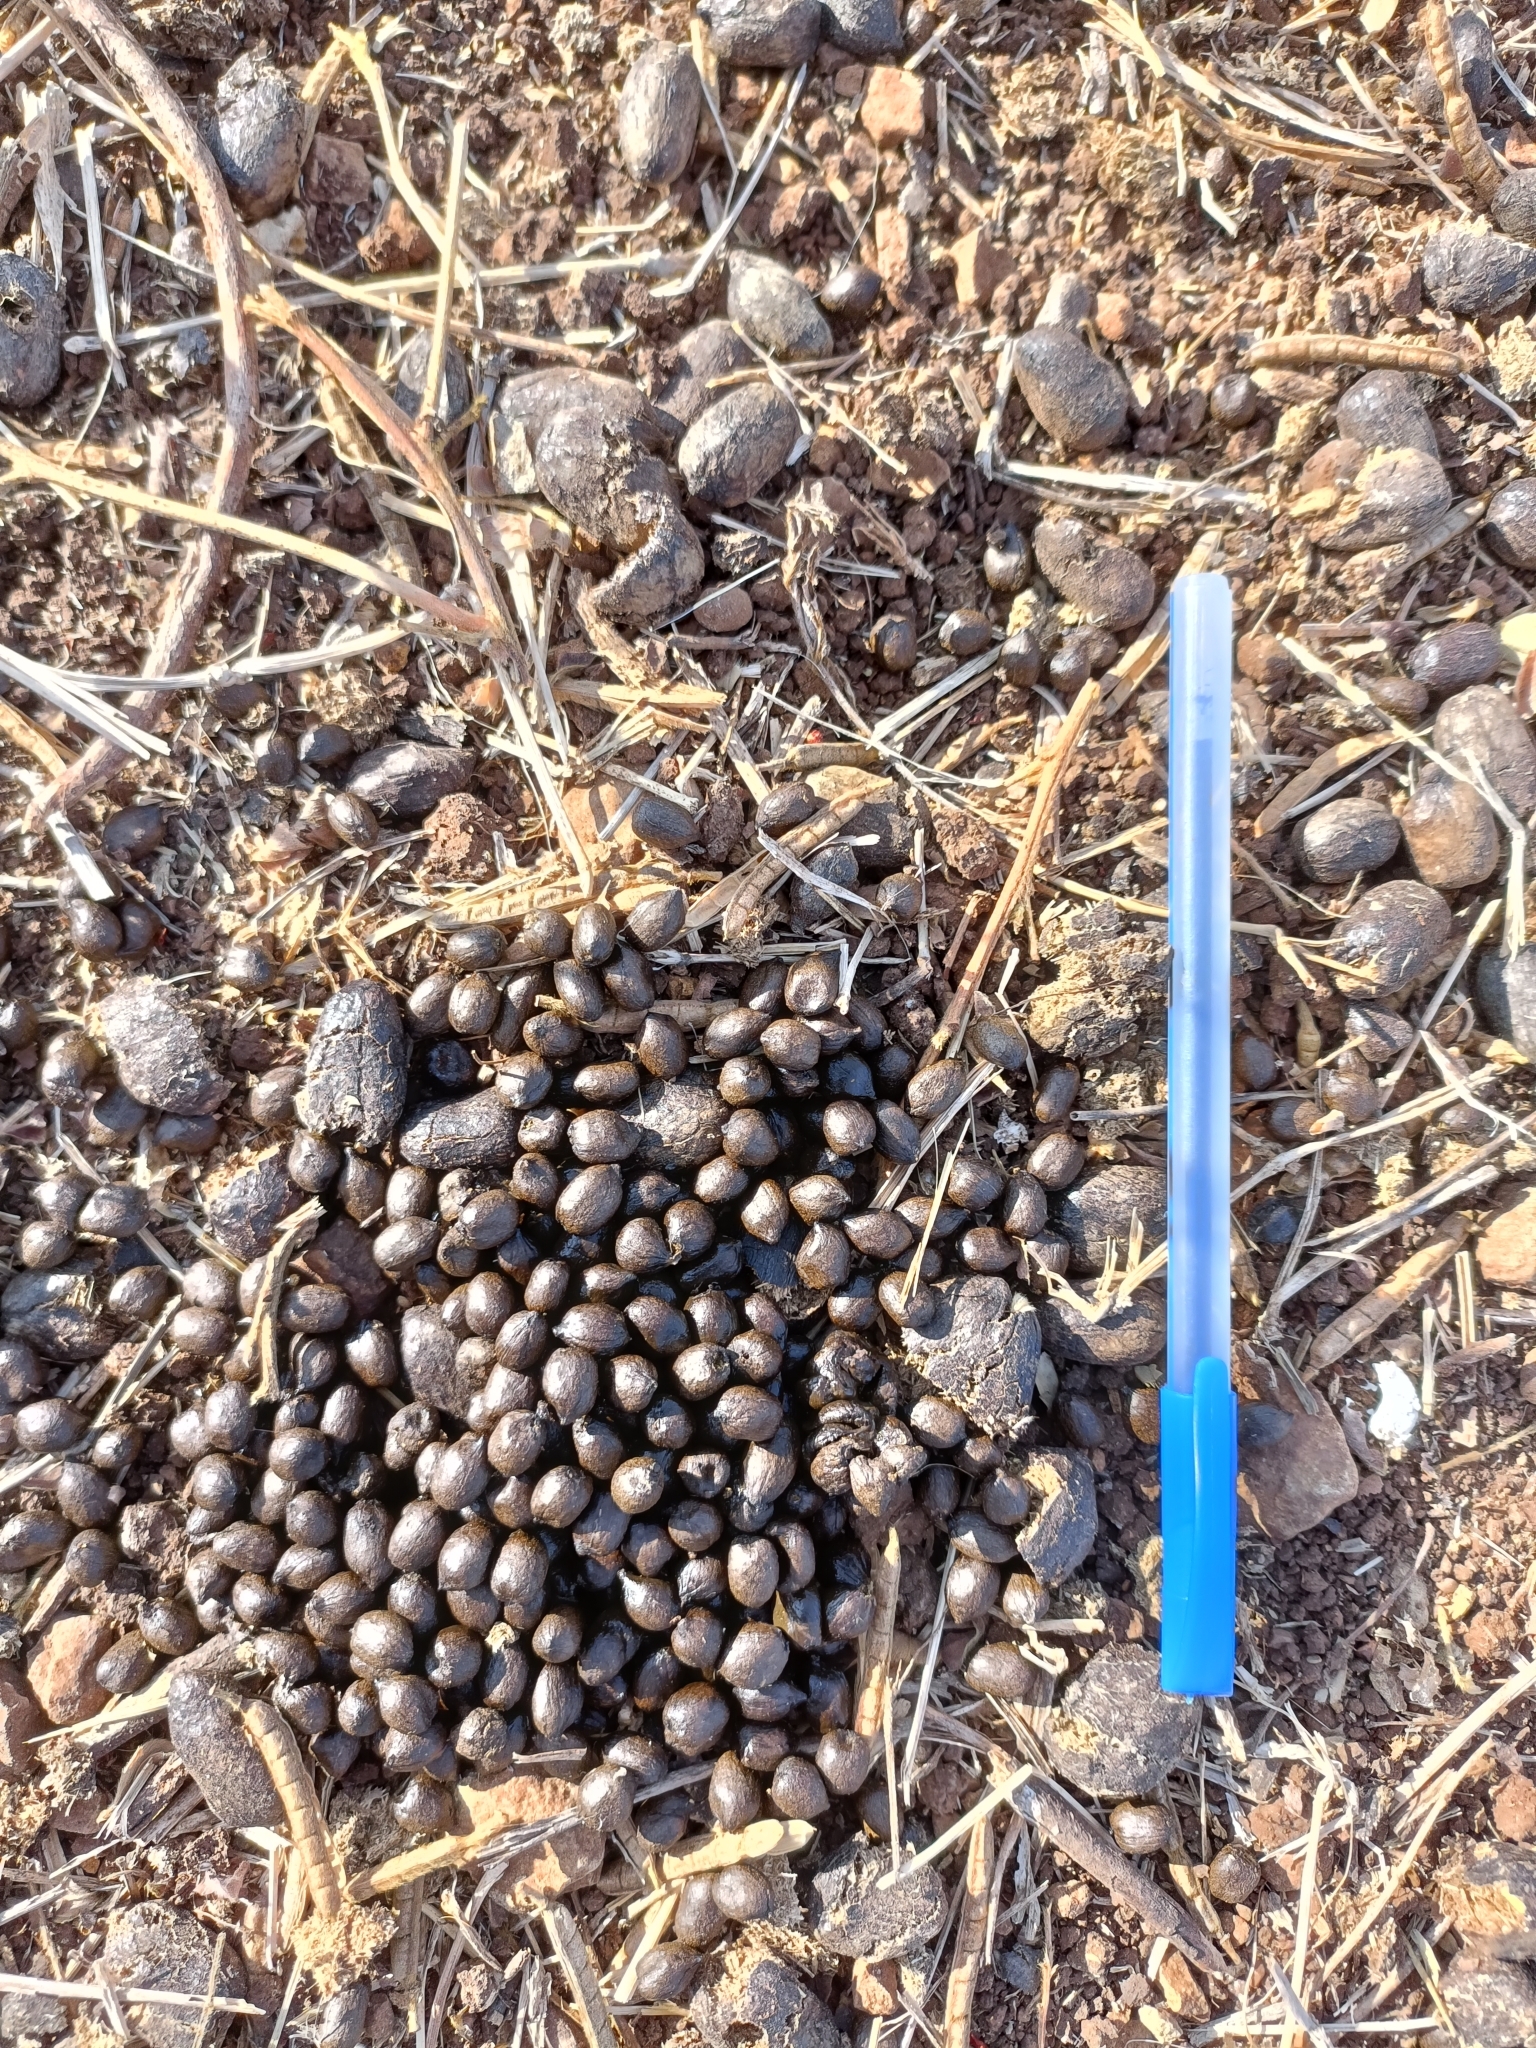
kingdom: Animalia
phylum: Chordata
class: Mammalia
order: Artiodactyla
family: Bovidae
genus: Gazella
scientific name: Gazella bennettii
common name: Indian gazelle
